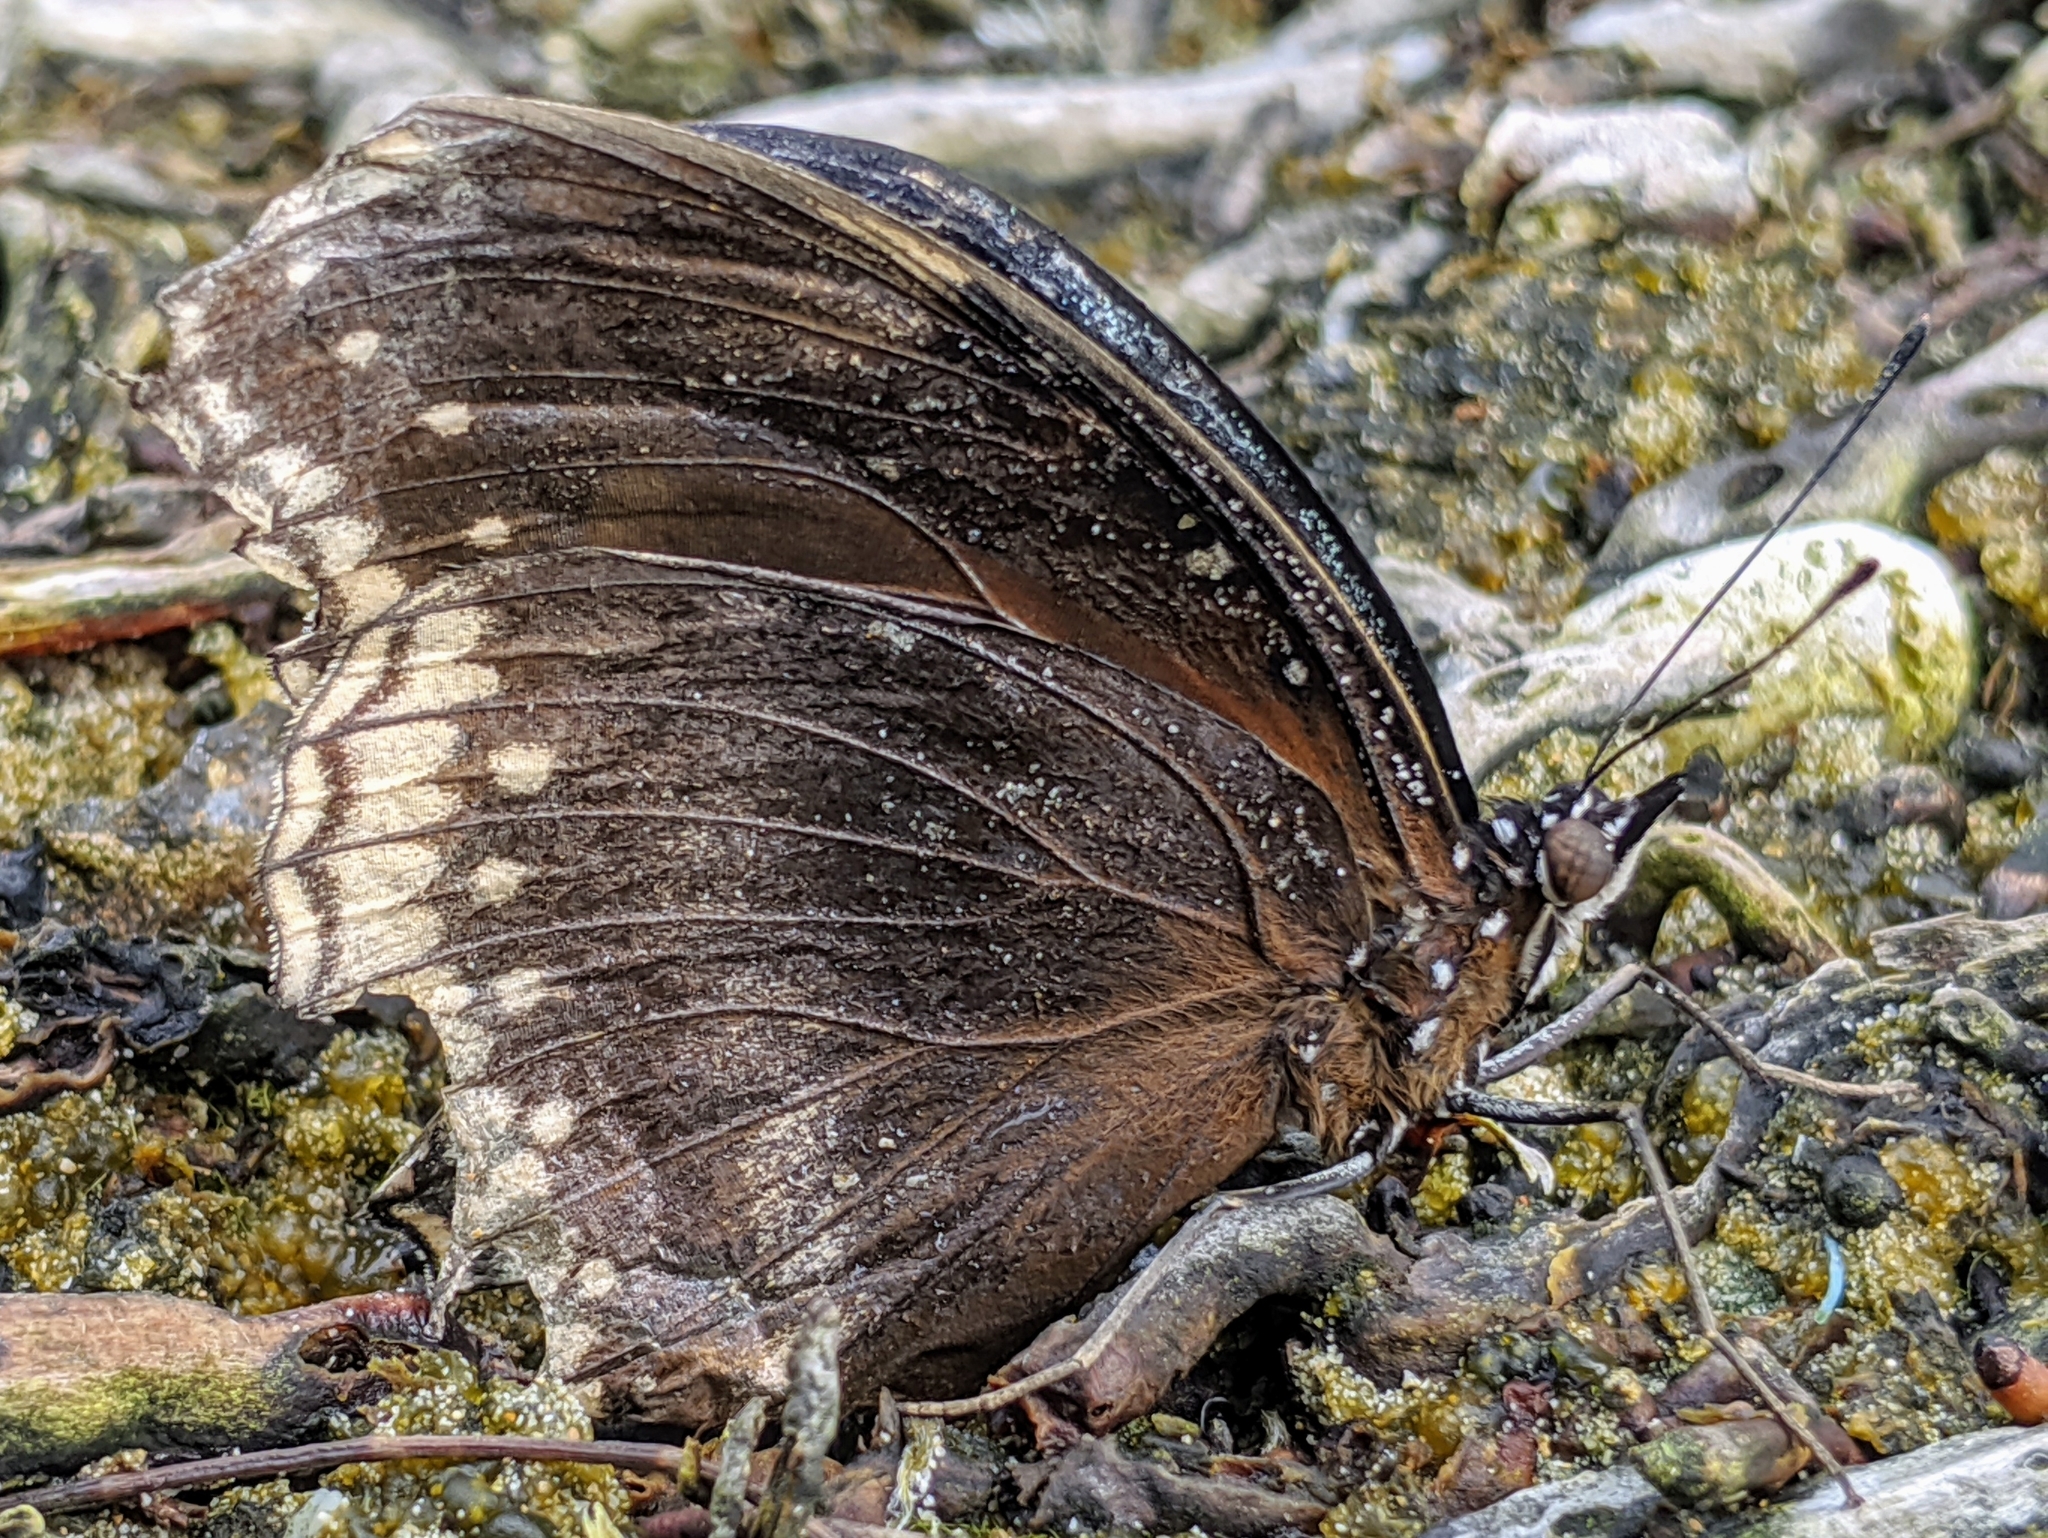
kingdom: Animalia
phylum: Arthropoda
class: Insecta
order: Lepidoptera
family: Nymphalidae
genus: Hypolimnas
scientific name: Hypolimnas bolina
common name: Great eggfly
